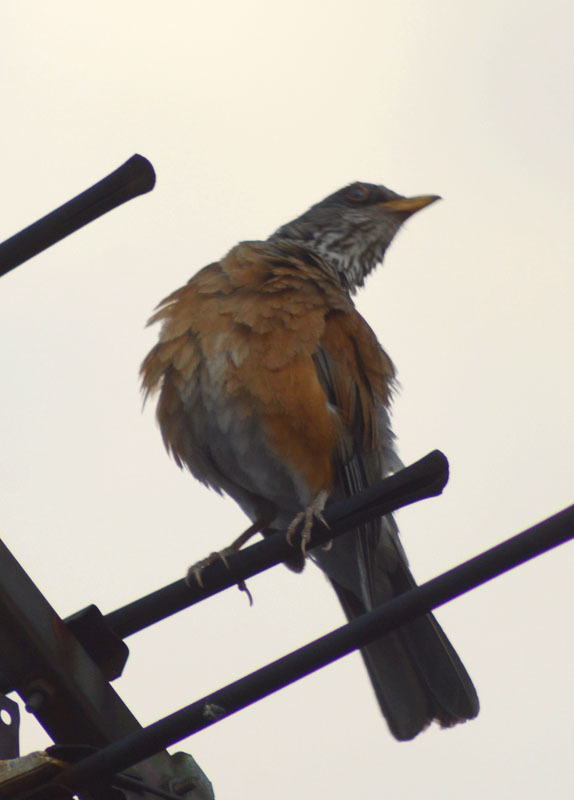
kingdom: Animalia
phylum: Chordata
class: Aves
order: Passeriformes
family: Turdidae
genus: Turdus
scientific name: Turdus rufopalliatus
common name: Rufous-backed robin
